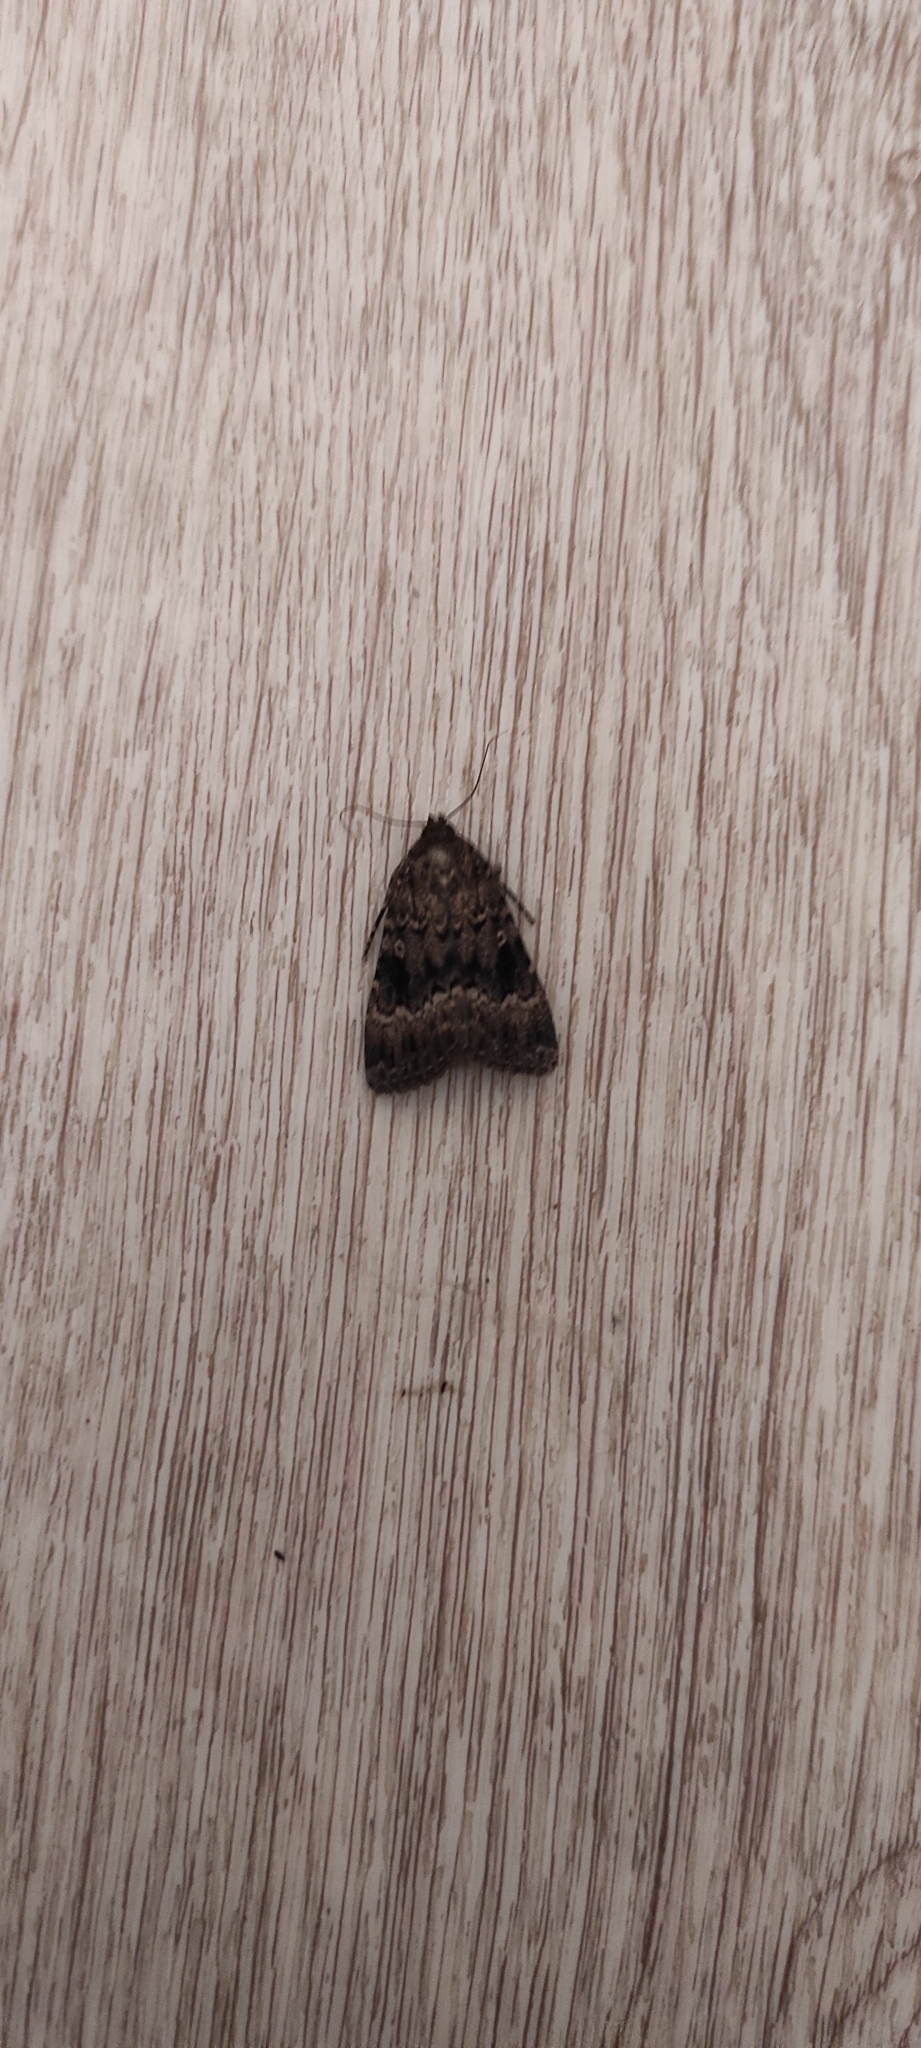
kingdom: Animalia
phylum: Arthropoda
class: Insecta
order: Lepidoptera
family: Noctuidae
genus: Amphipyra
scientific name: Amphipyra berbera
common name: Svensson's copper underwing
